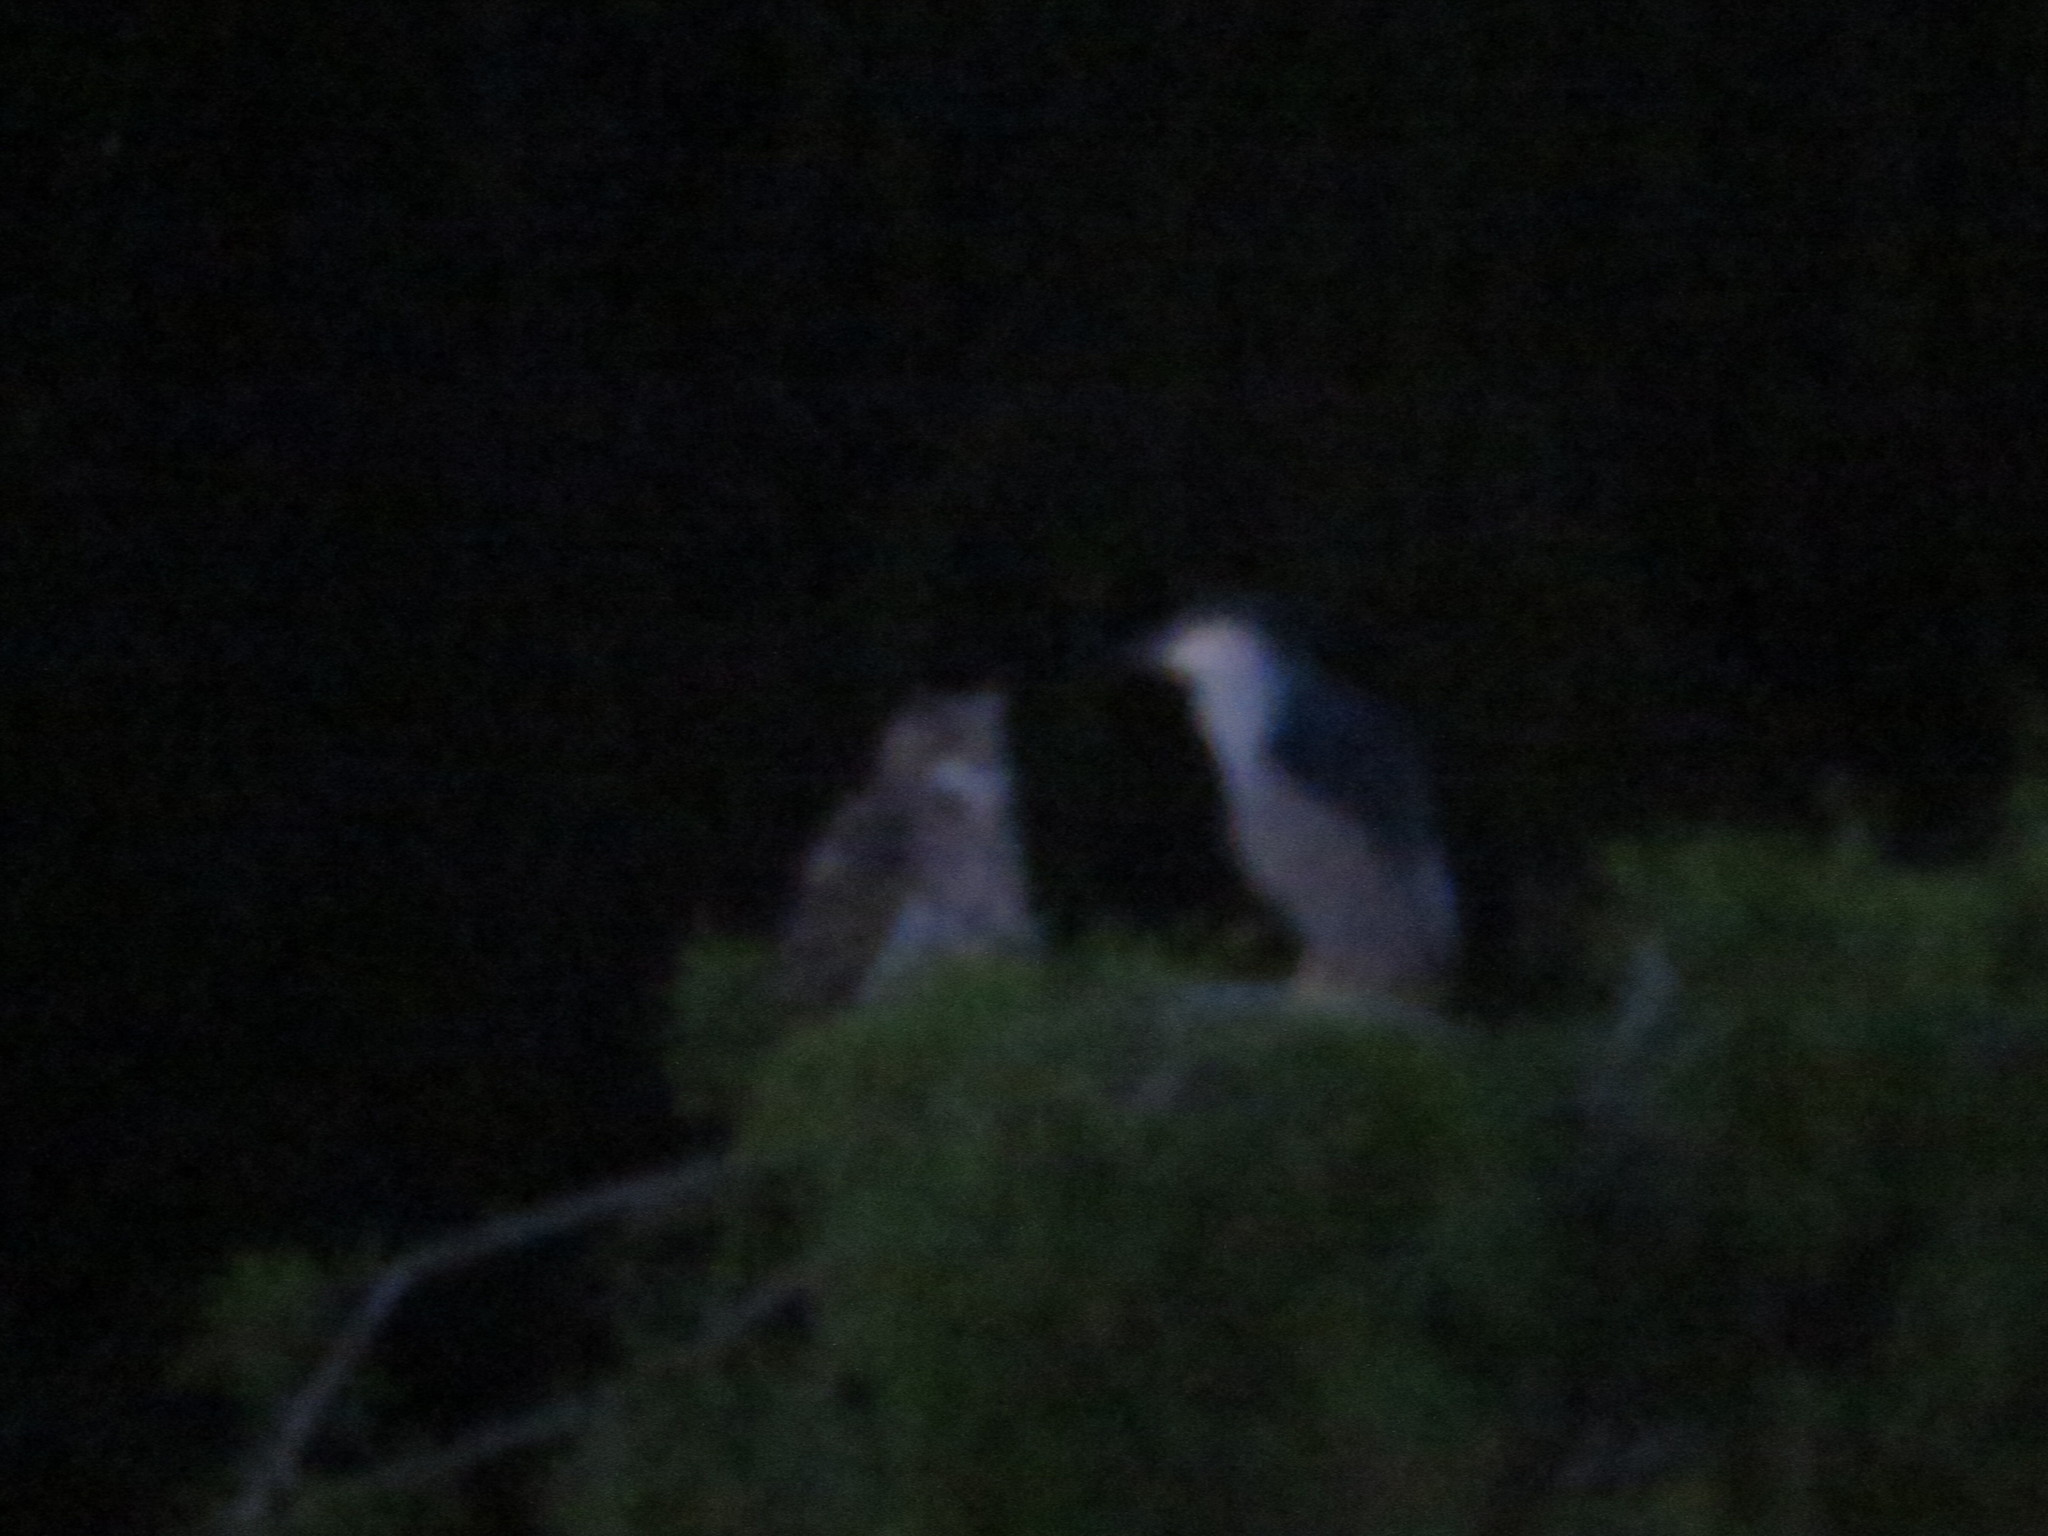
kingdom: Animalia
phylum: Chordata
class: Aves
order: Pelecaniformes
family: Ardeidae
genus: Nycticorax
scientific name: Nycticorax nycticorax
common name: Black-crowned night heron
